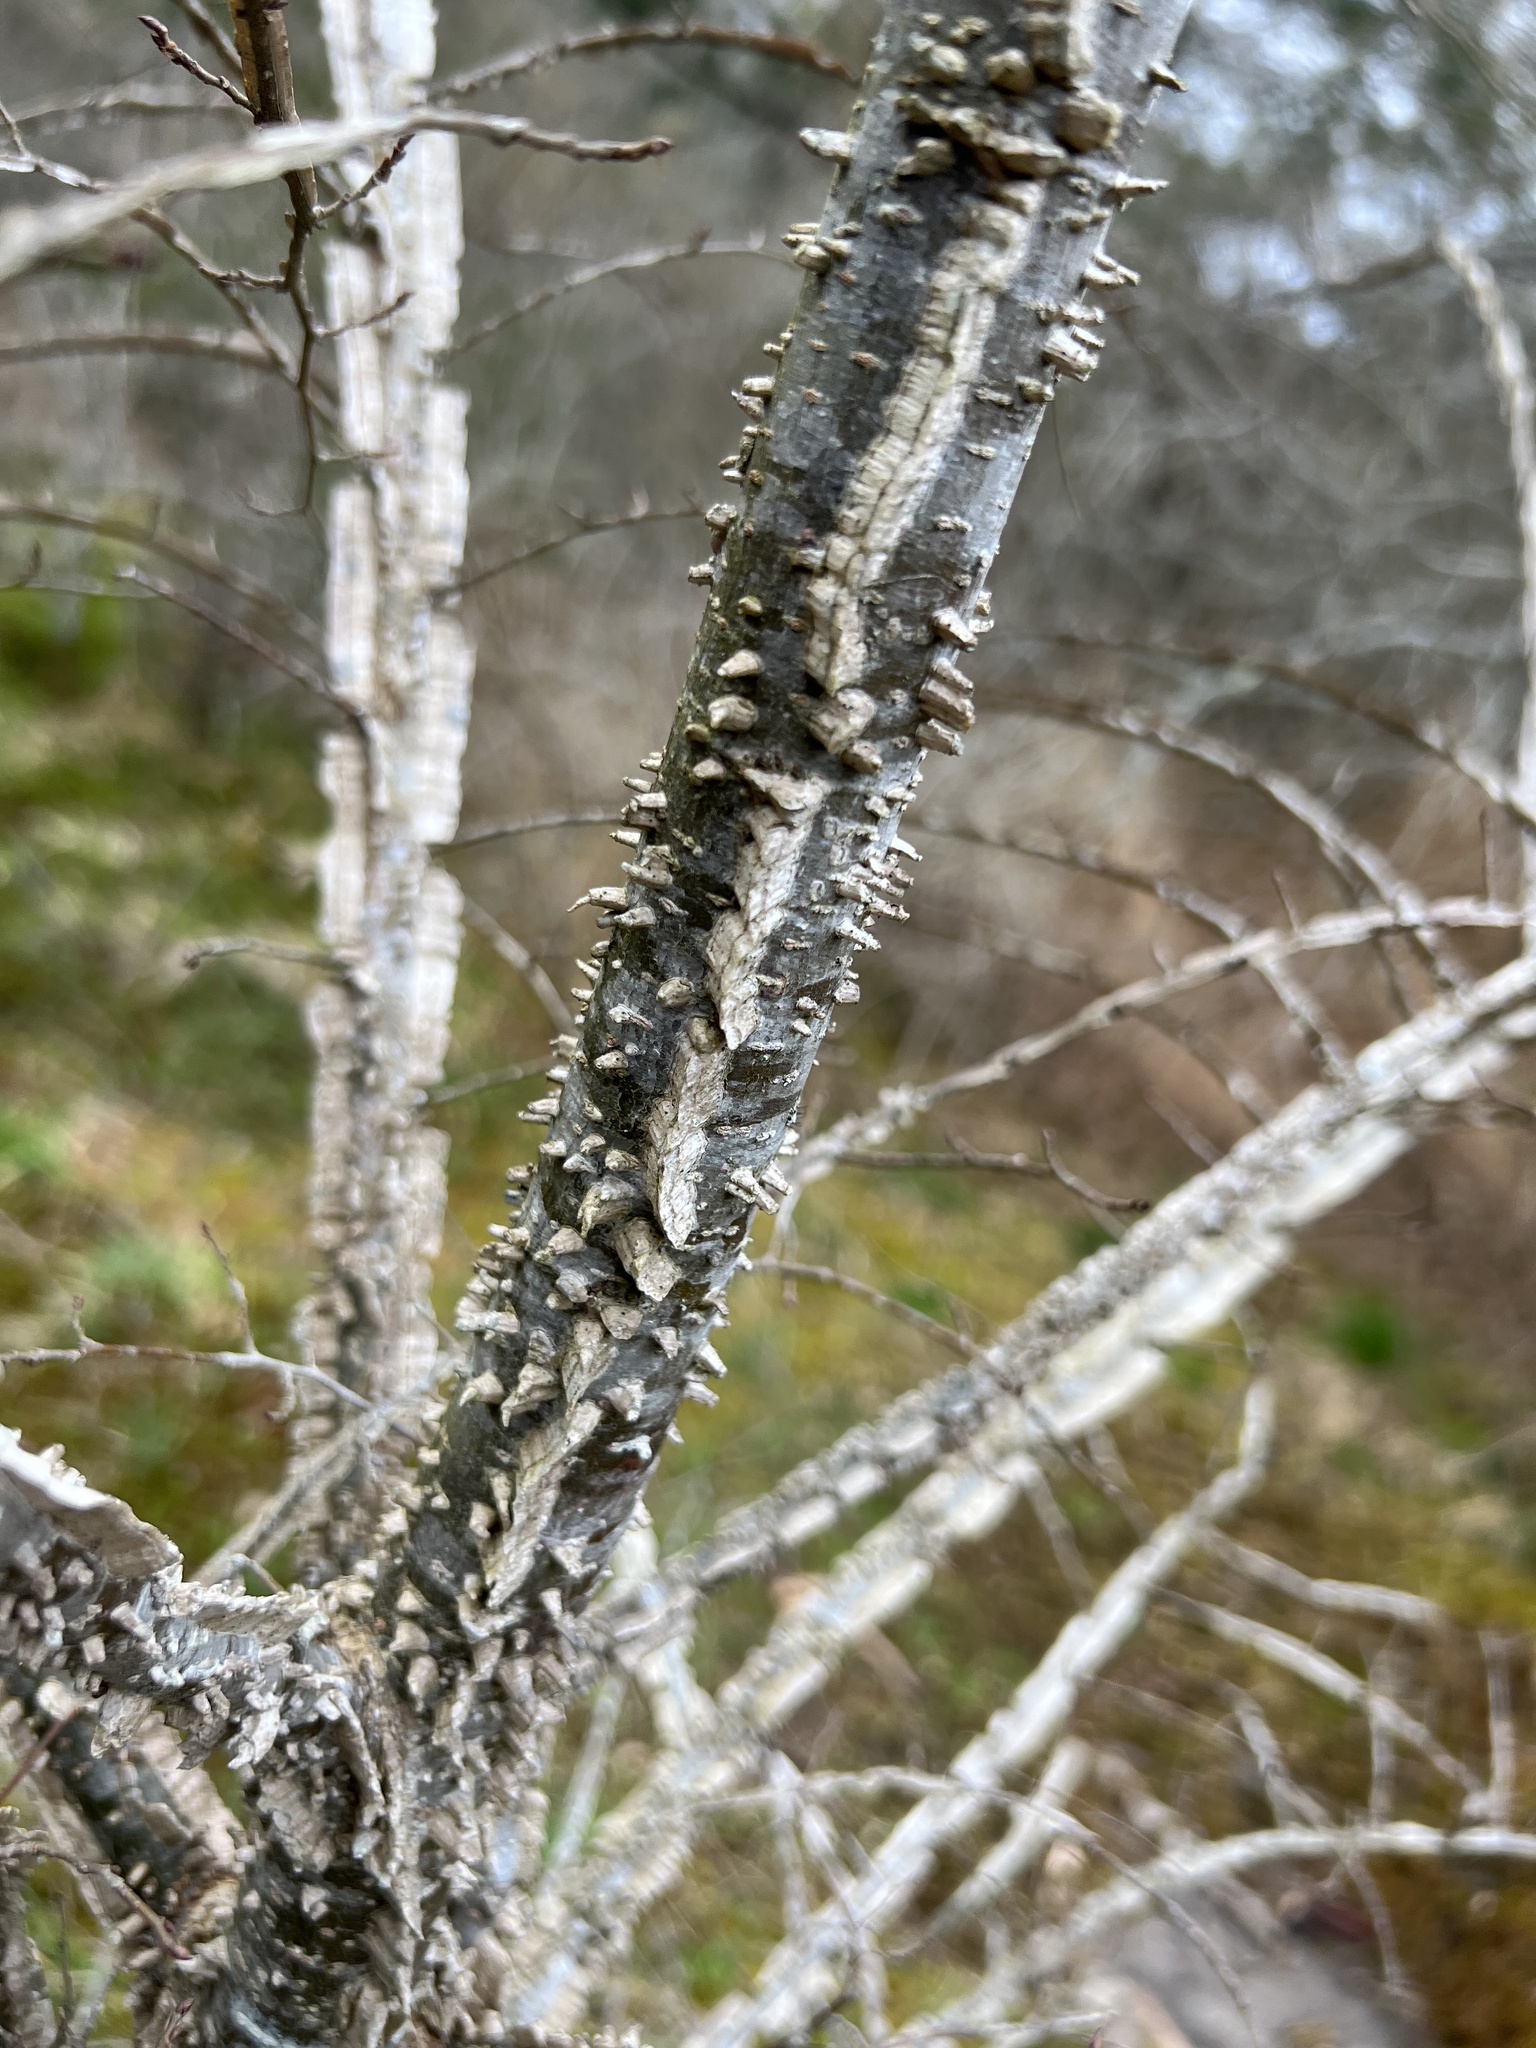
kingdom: Plantae
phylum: Tracheophyta
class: Magnoliopsida
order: Rosales
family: Ulmaceae
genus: Ulmus
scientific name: Ulmus alata
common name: Winged elm
